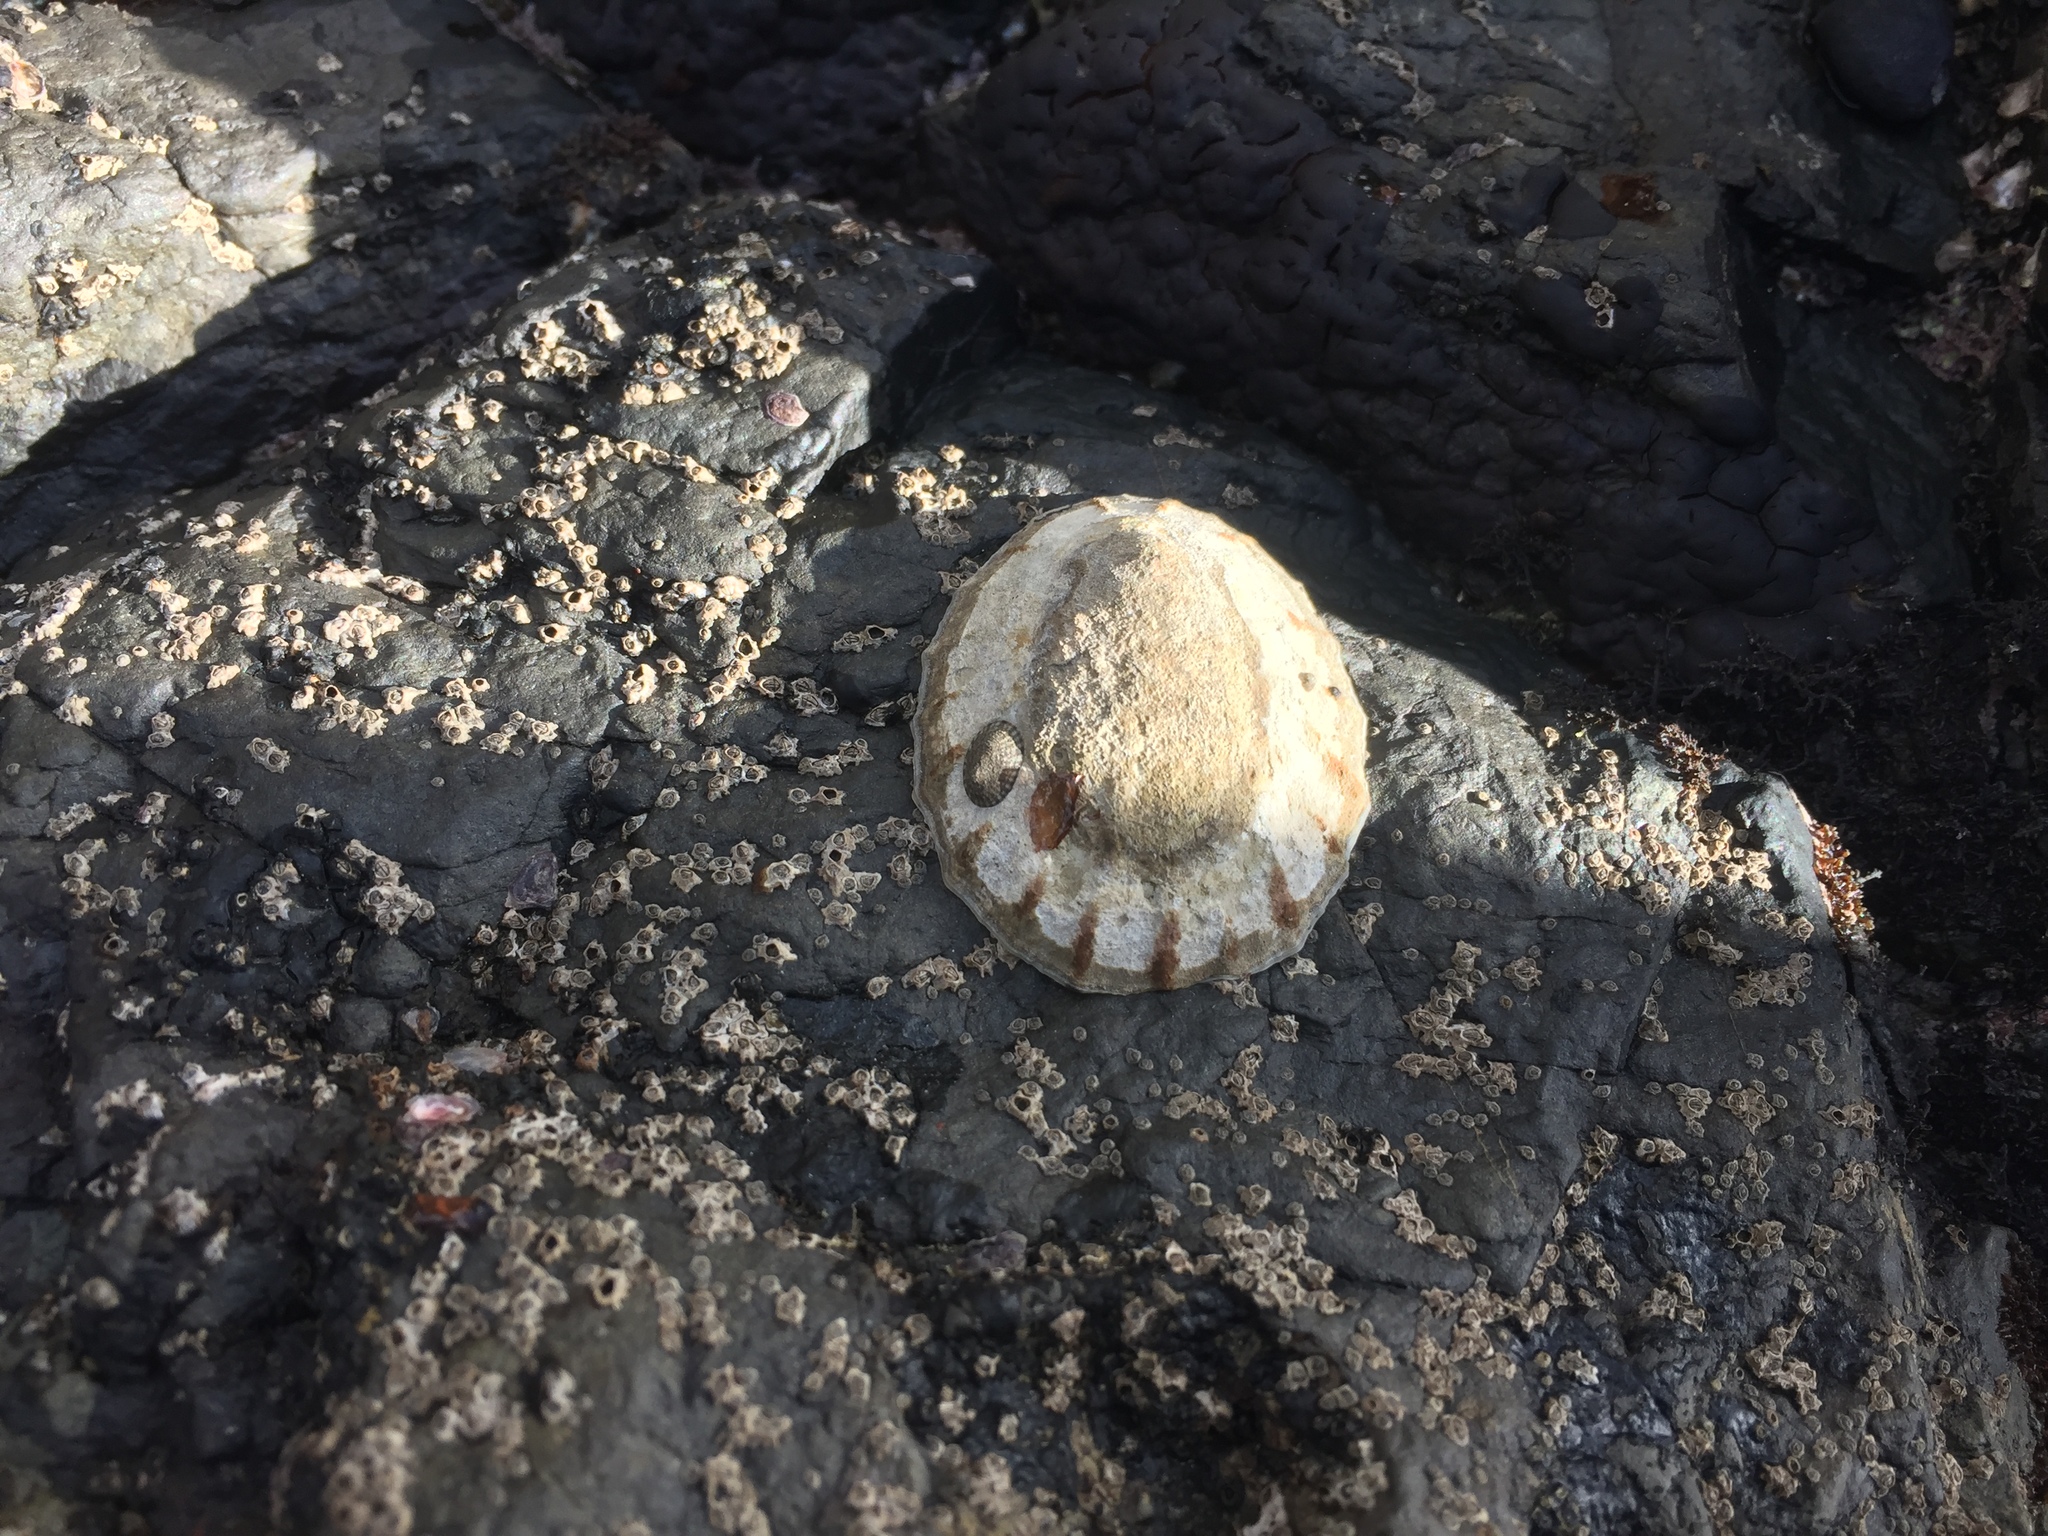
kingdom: Animalia
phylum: Mollusca
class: Gastropoda
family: Nacellidae
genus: Cellana
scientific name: Cellana radians
